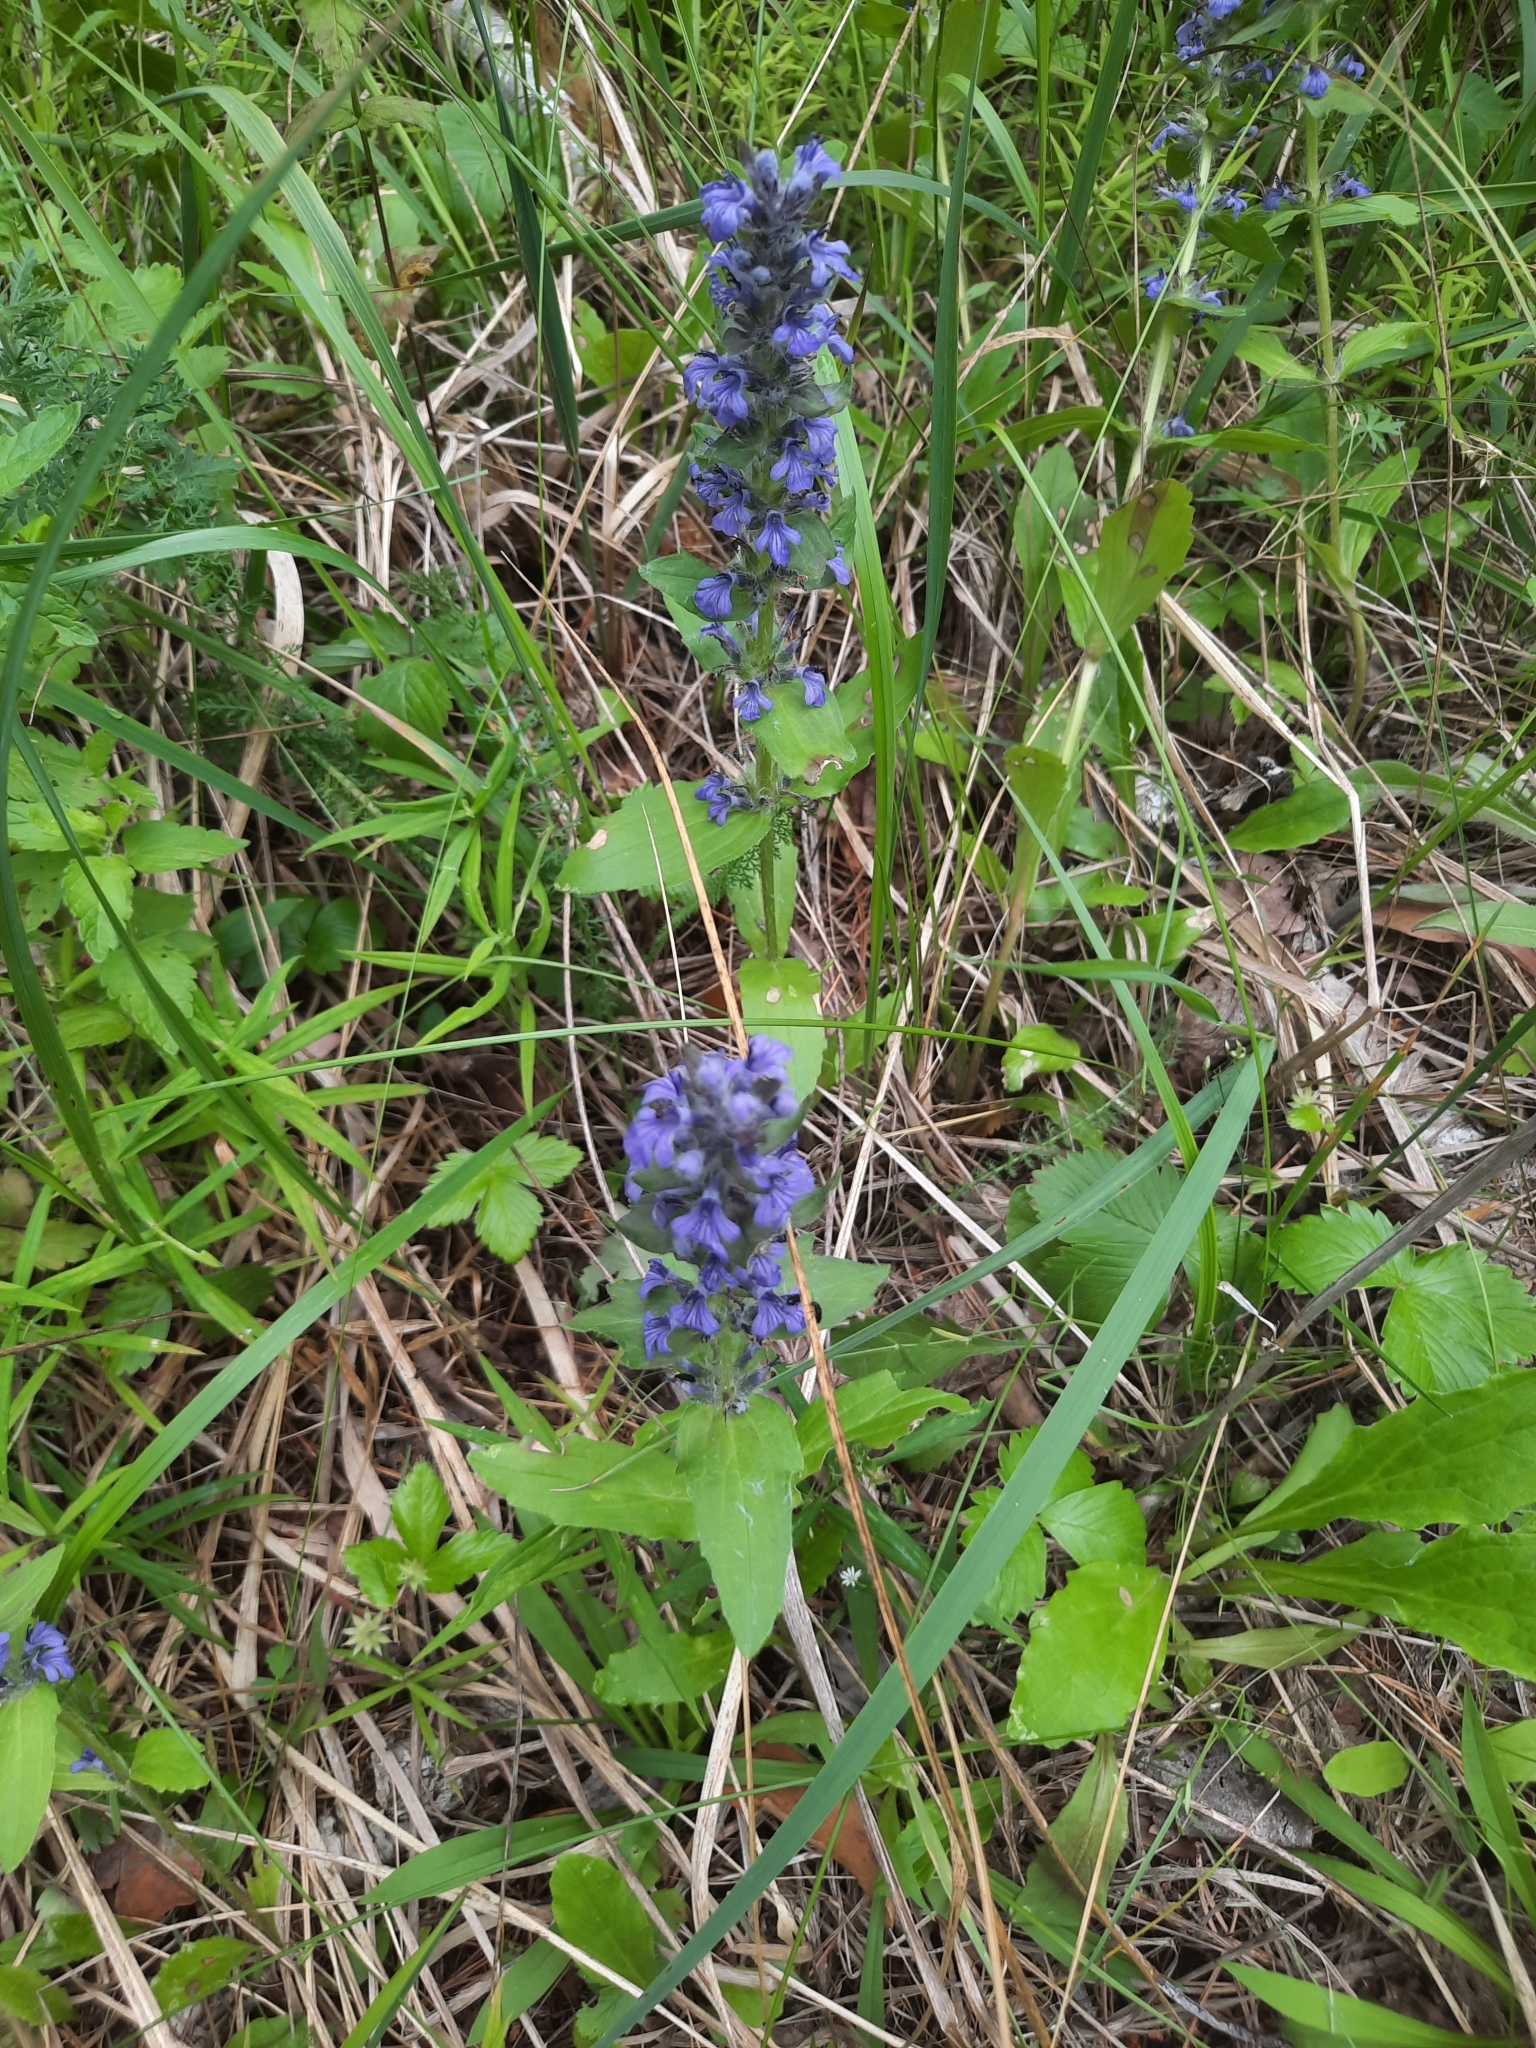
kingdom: Plantae
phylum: Tracheophyta
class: Magnoliopsida
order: Lamiales
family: Lamiaceae
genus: Ajuga
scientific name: Ajuga genevensis
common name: Blue bugle
